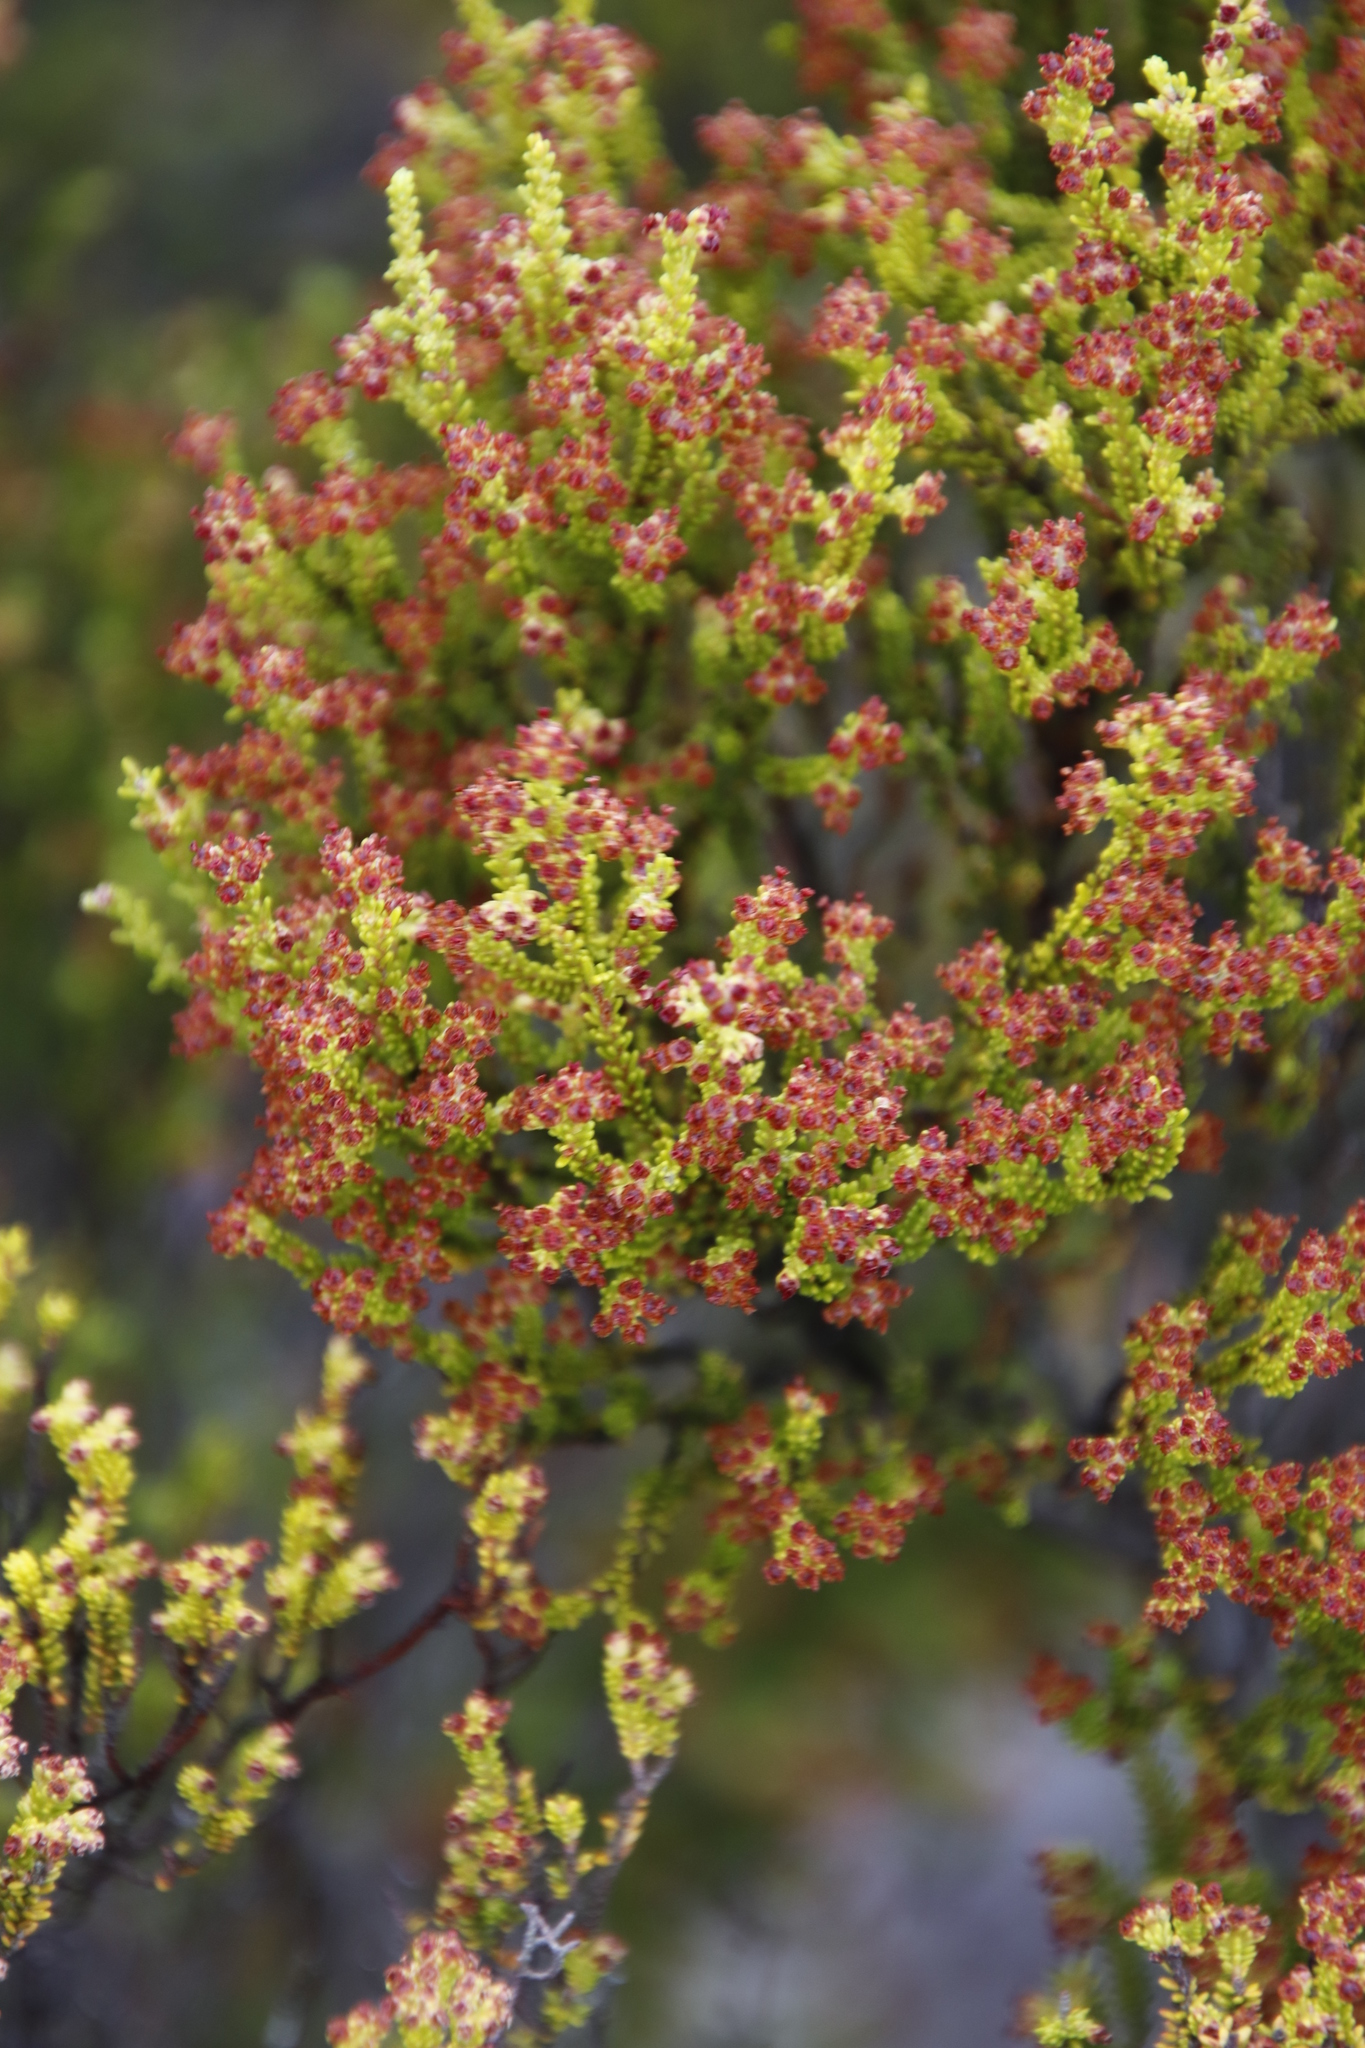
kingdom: Plantae
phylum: Tracheophyta
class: Magnoliopsida
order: Ericales
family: Ericaceae
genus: Erica
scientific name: Erica tristis
